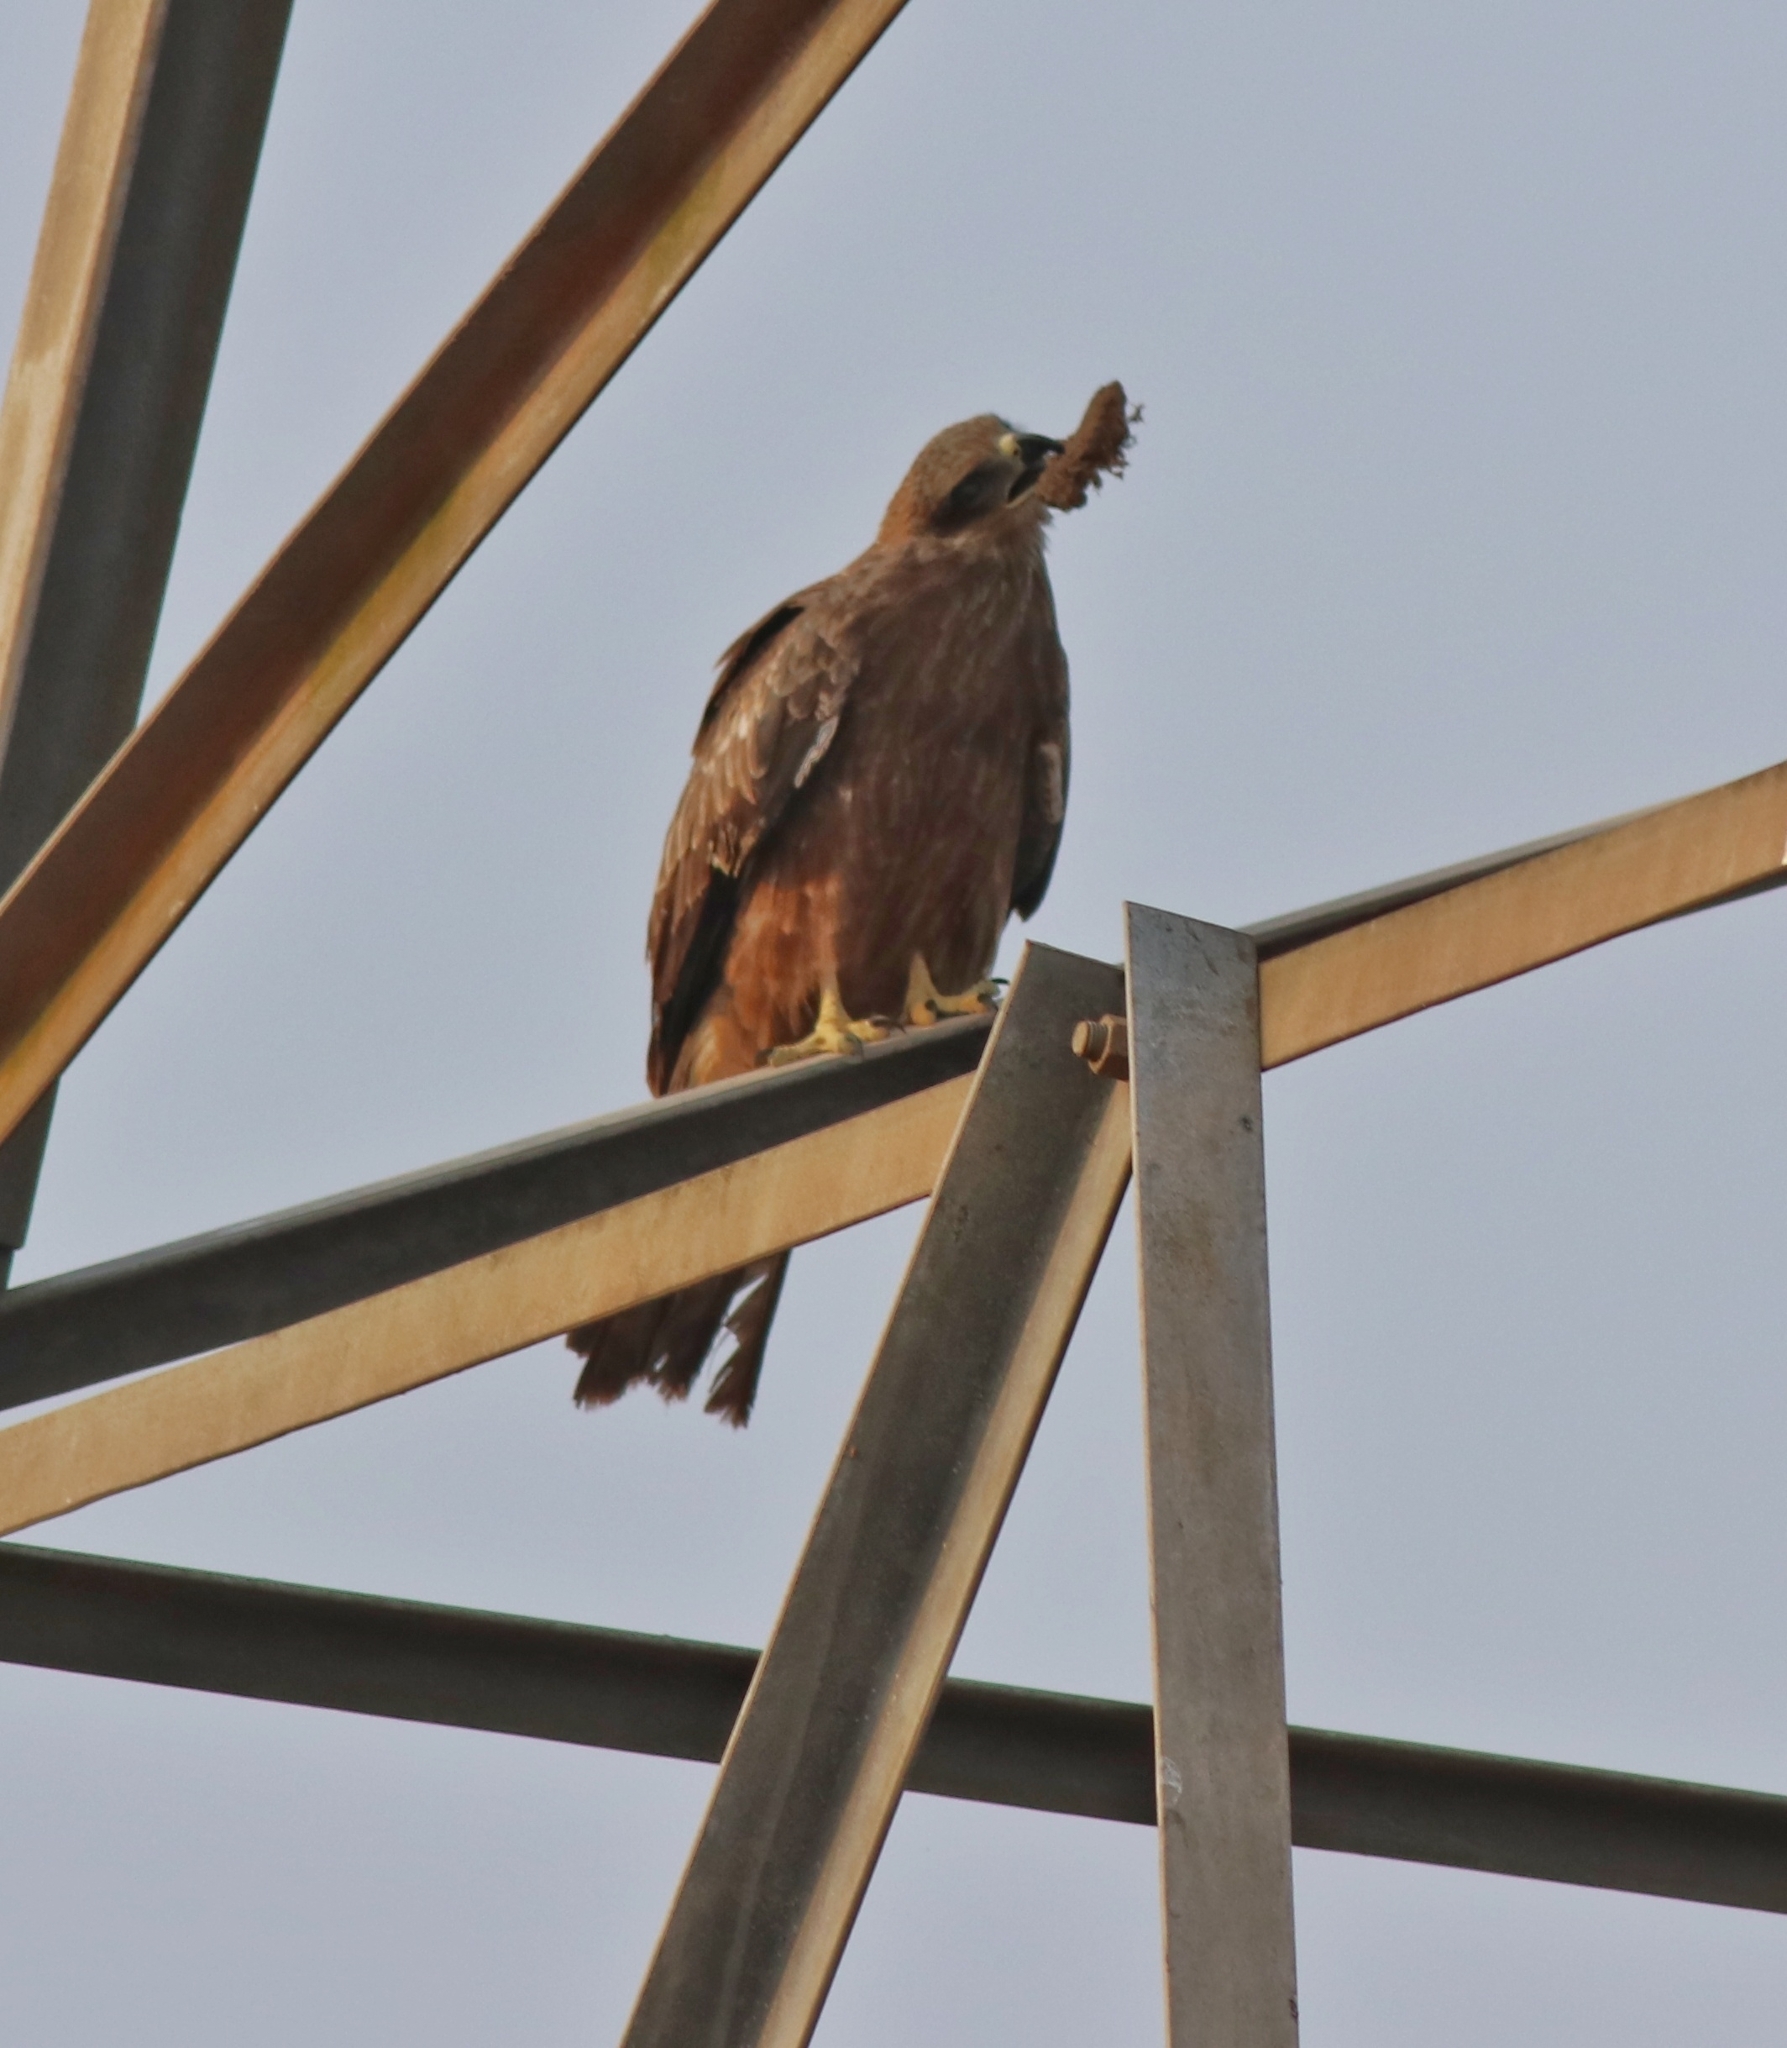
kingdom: Animalia
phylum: Chordata
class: Aves
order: Accipitriformes
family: Accipitridae
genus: Milvus
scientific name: Milvus migrans
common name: Black kite
